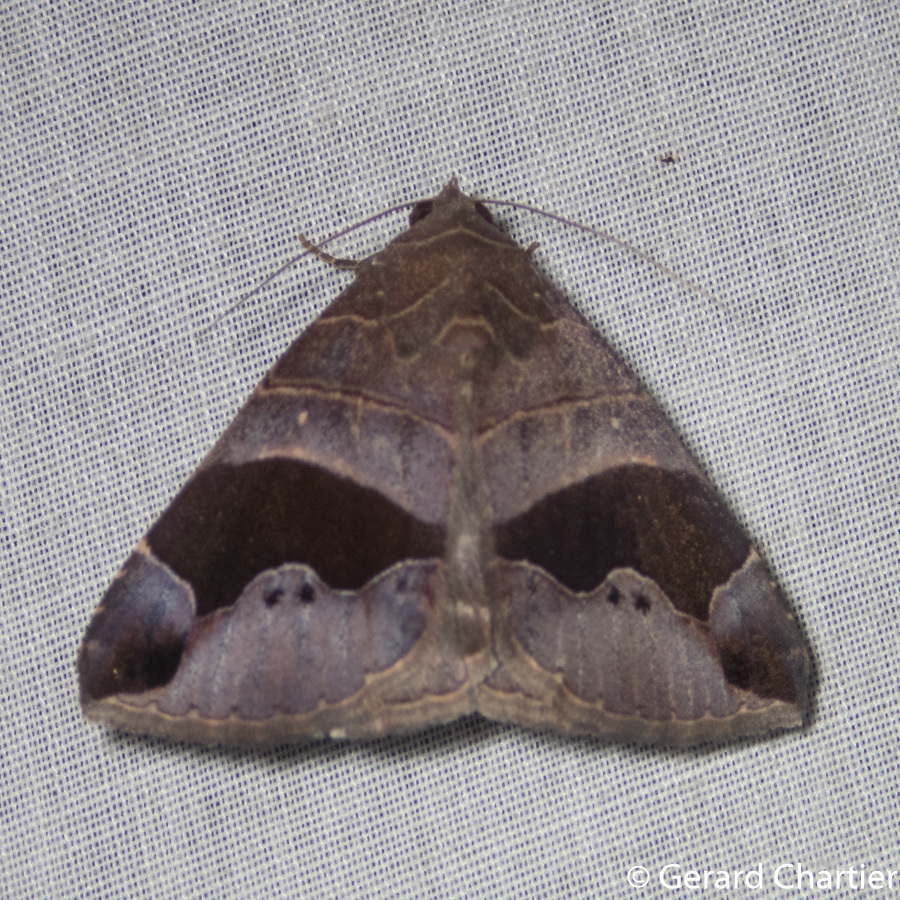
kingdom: Animalia
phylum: Arthropoda
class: Insecta
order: Lepidoptera
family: Erebidae
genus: Bastilla
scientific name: Bastilla joviana
